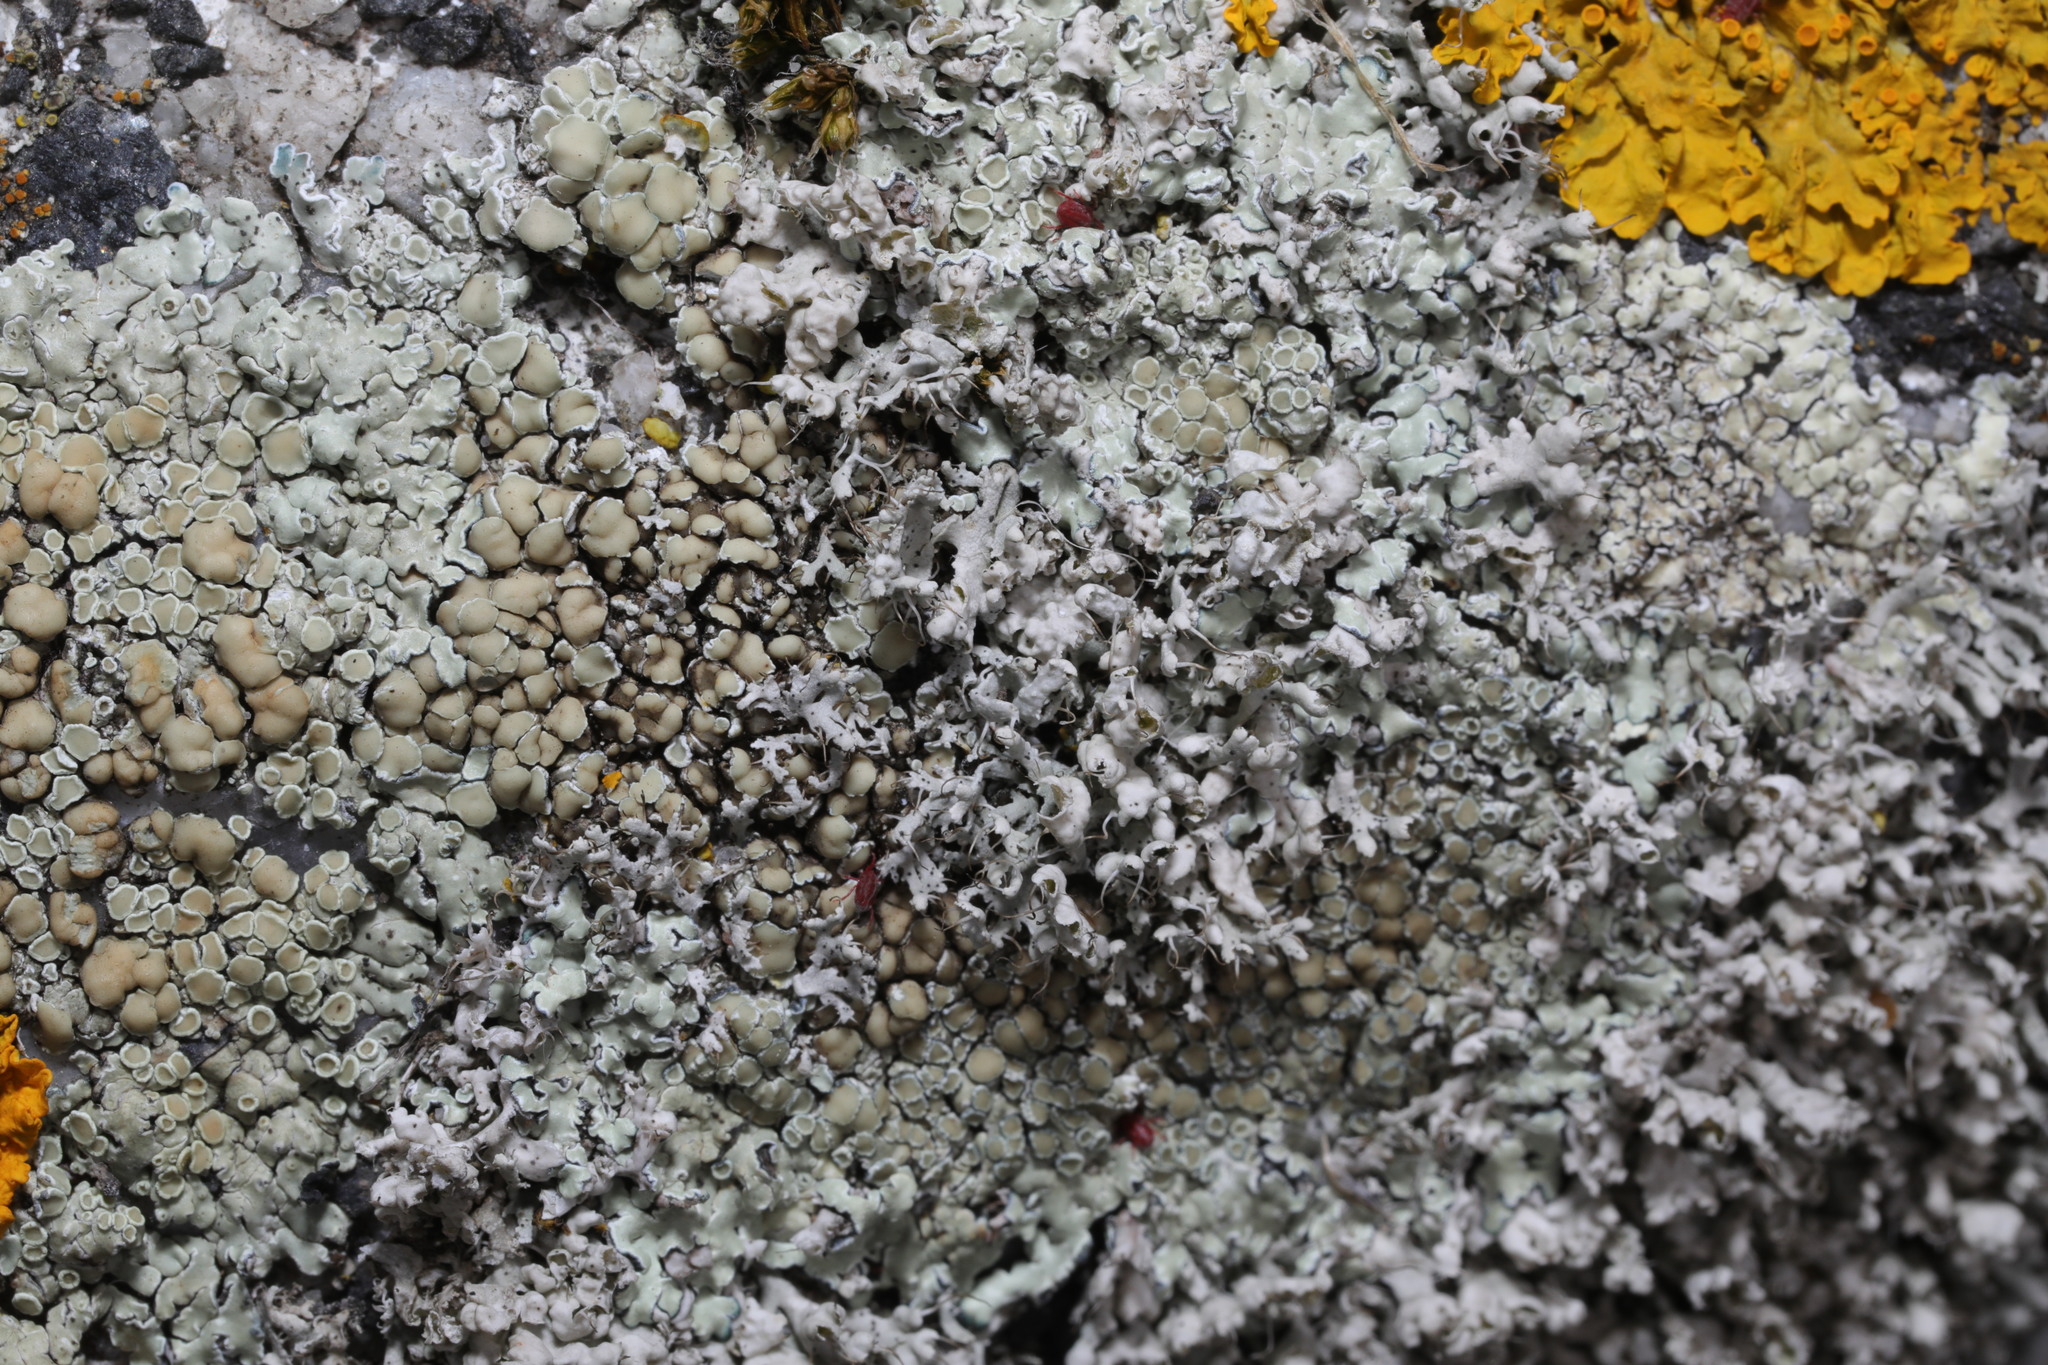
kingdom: Fungi
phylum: Ascomycota
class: Lecanoromycetes
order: Caliciales
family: Physciaceae
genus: Physcia
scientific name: Physcia adscendens
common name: Hooded rosette lichen
